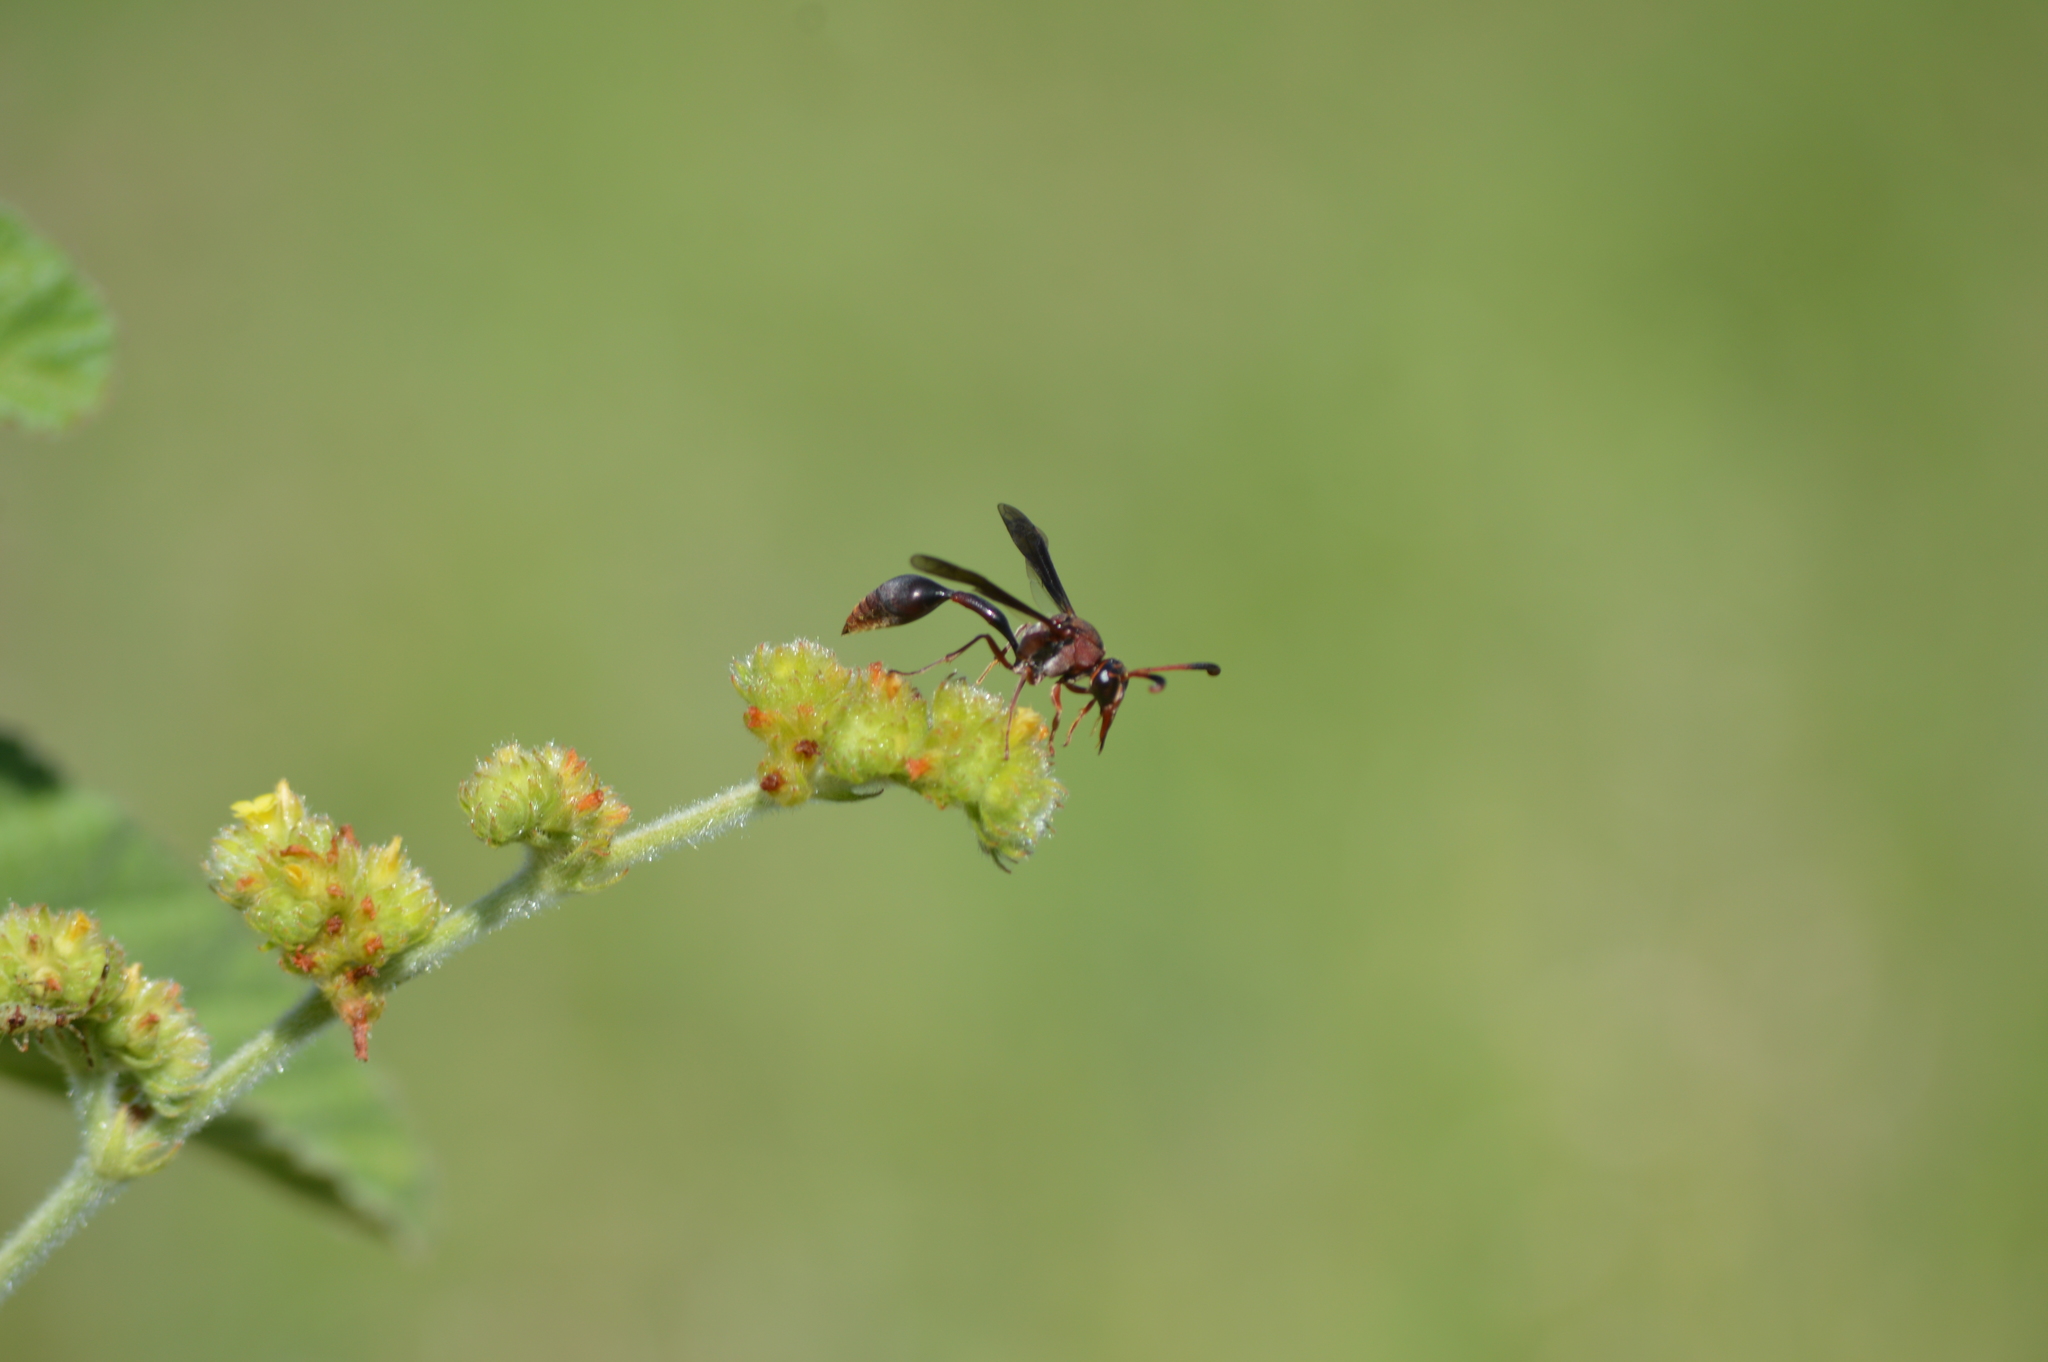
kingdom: Animalia
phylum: Arthropoda
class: Insecta
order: Hymenoptera
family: Eumenidae
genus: Zeta
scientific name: Zeta argillaceum
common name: Potter wasp
